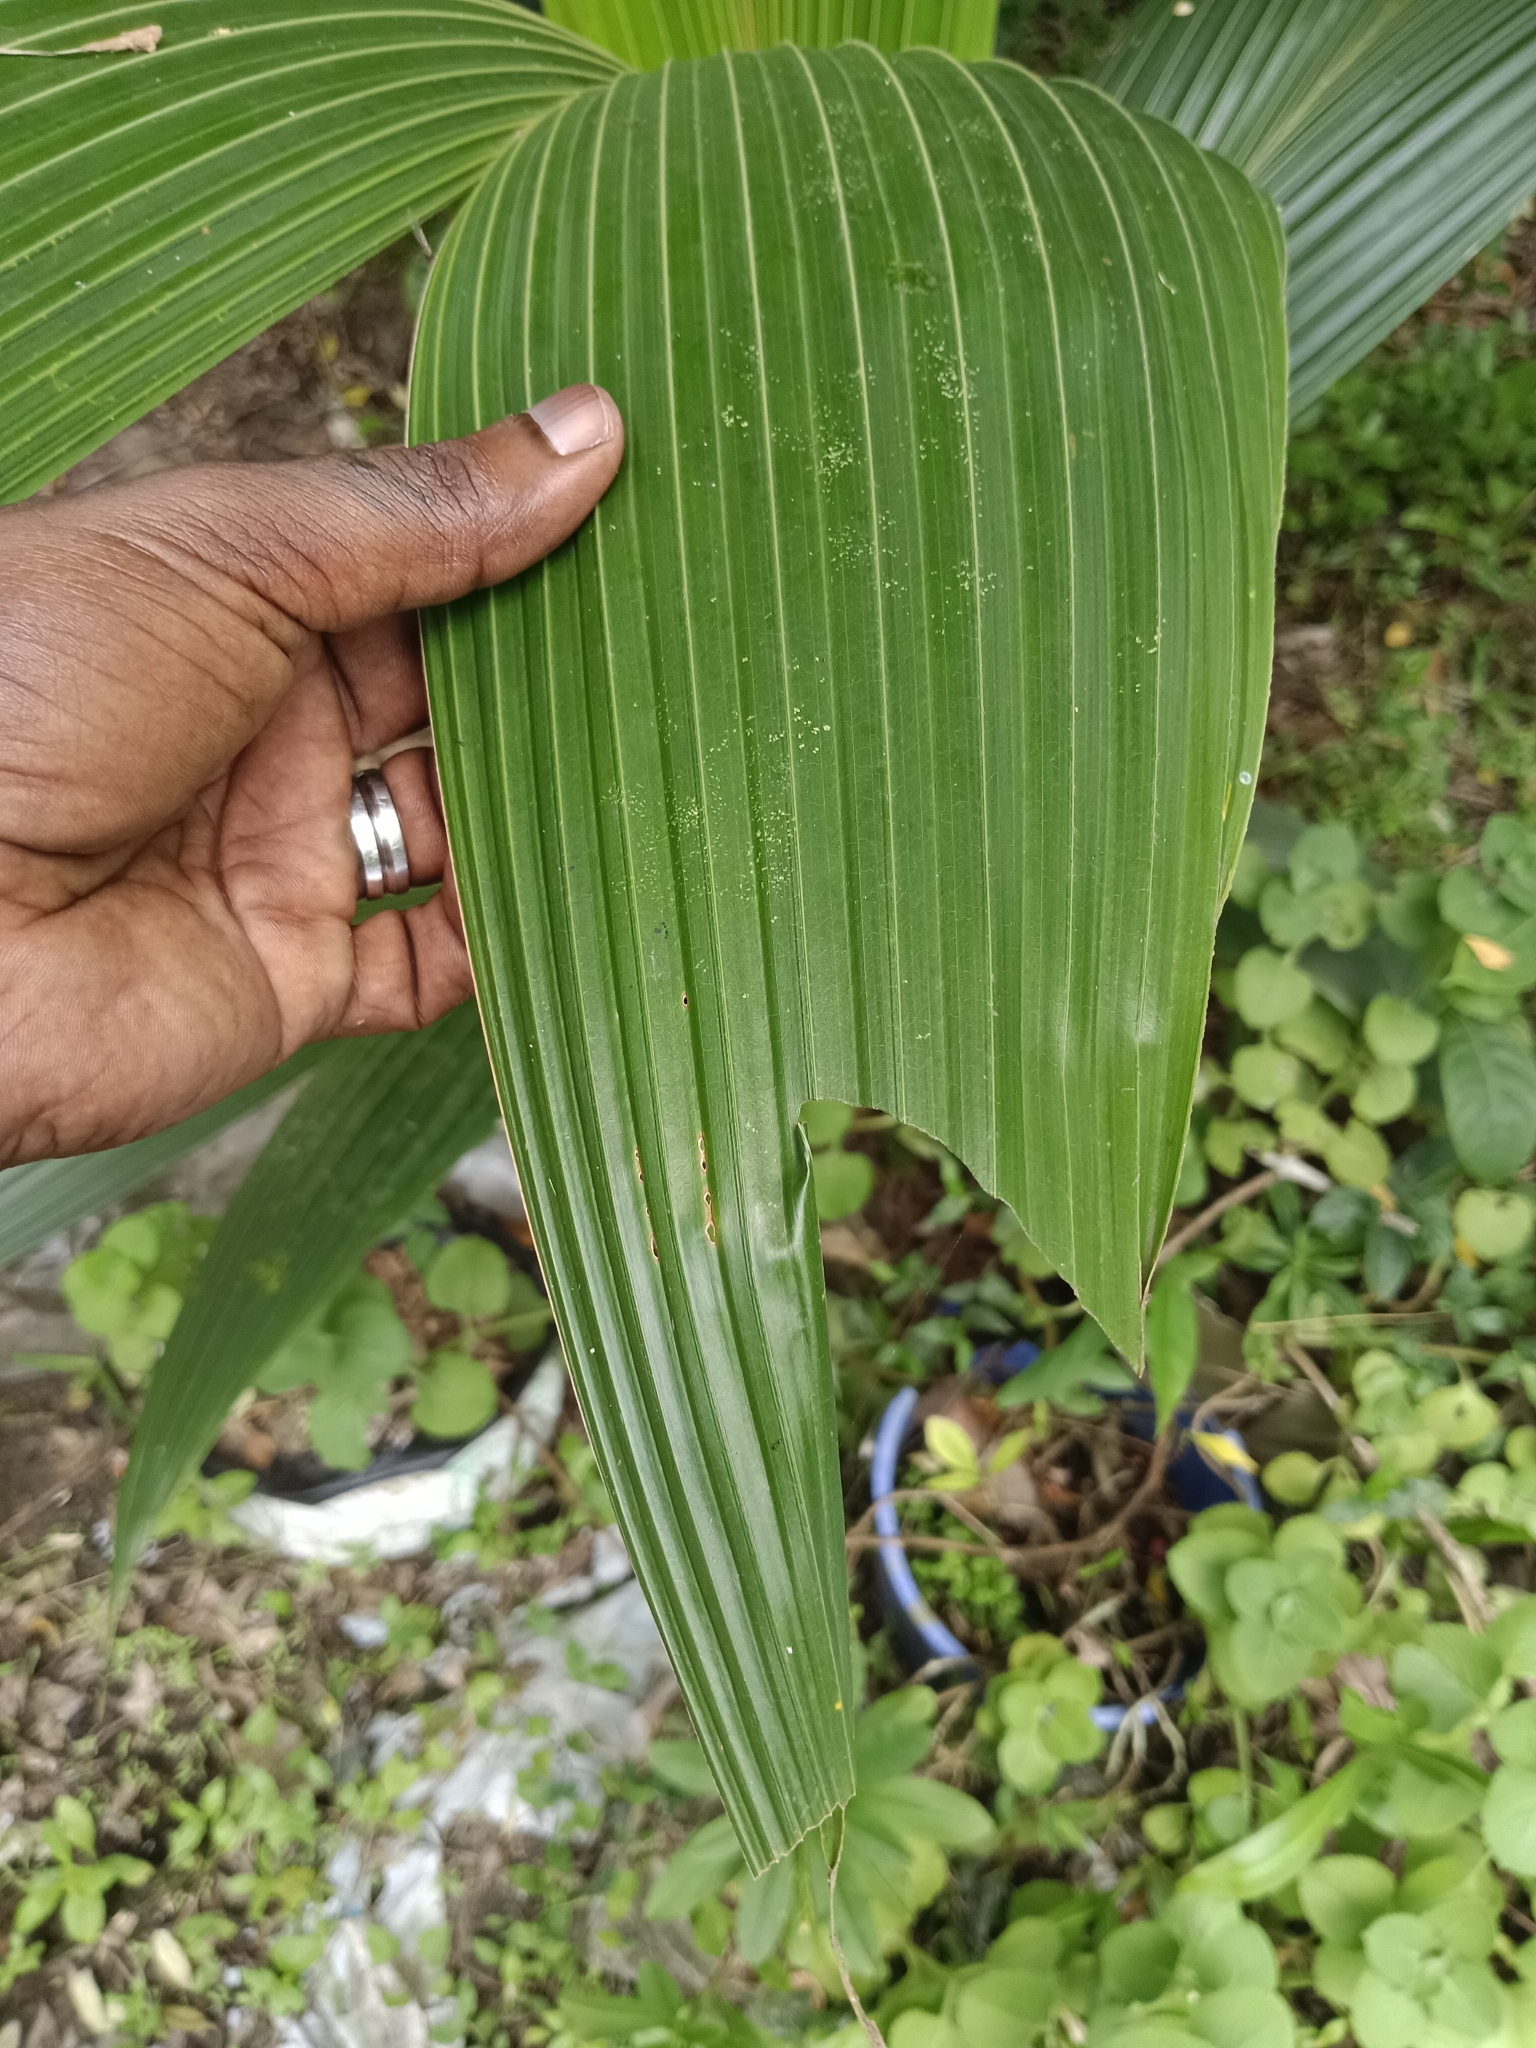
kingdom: Animalia
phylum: Arthropoda
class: Insecta
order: Lepidoptera
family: Hesperiidae
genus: Gangara
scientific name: Gangara thyrsis
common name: Giant redeye
